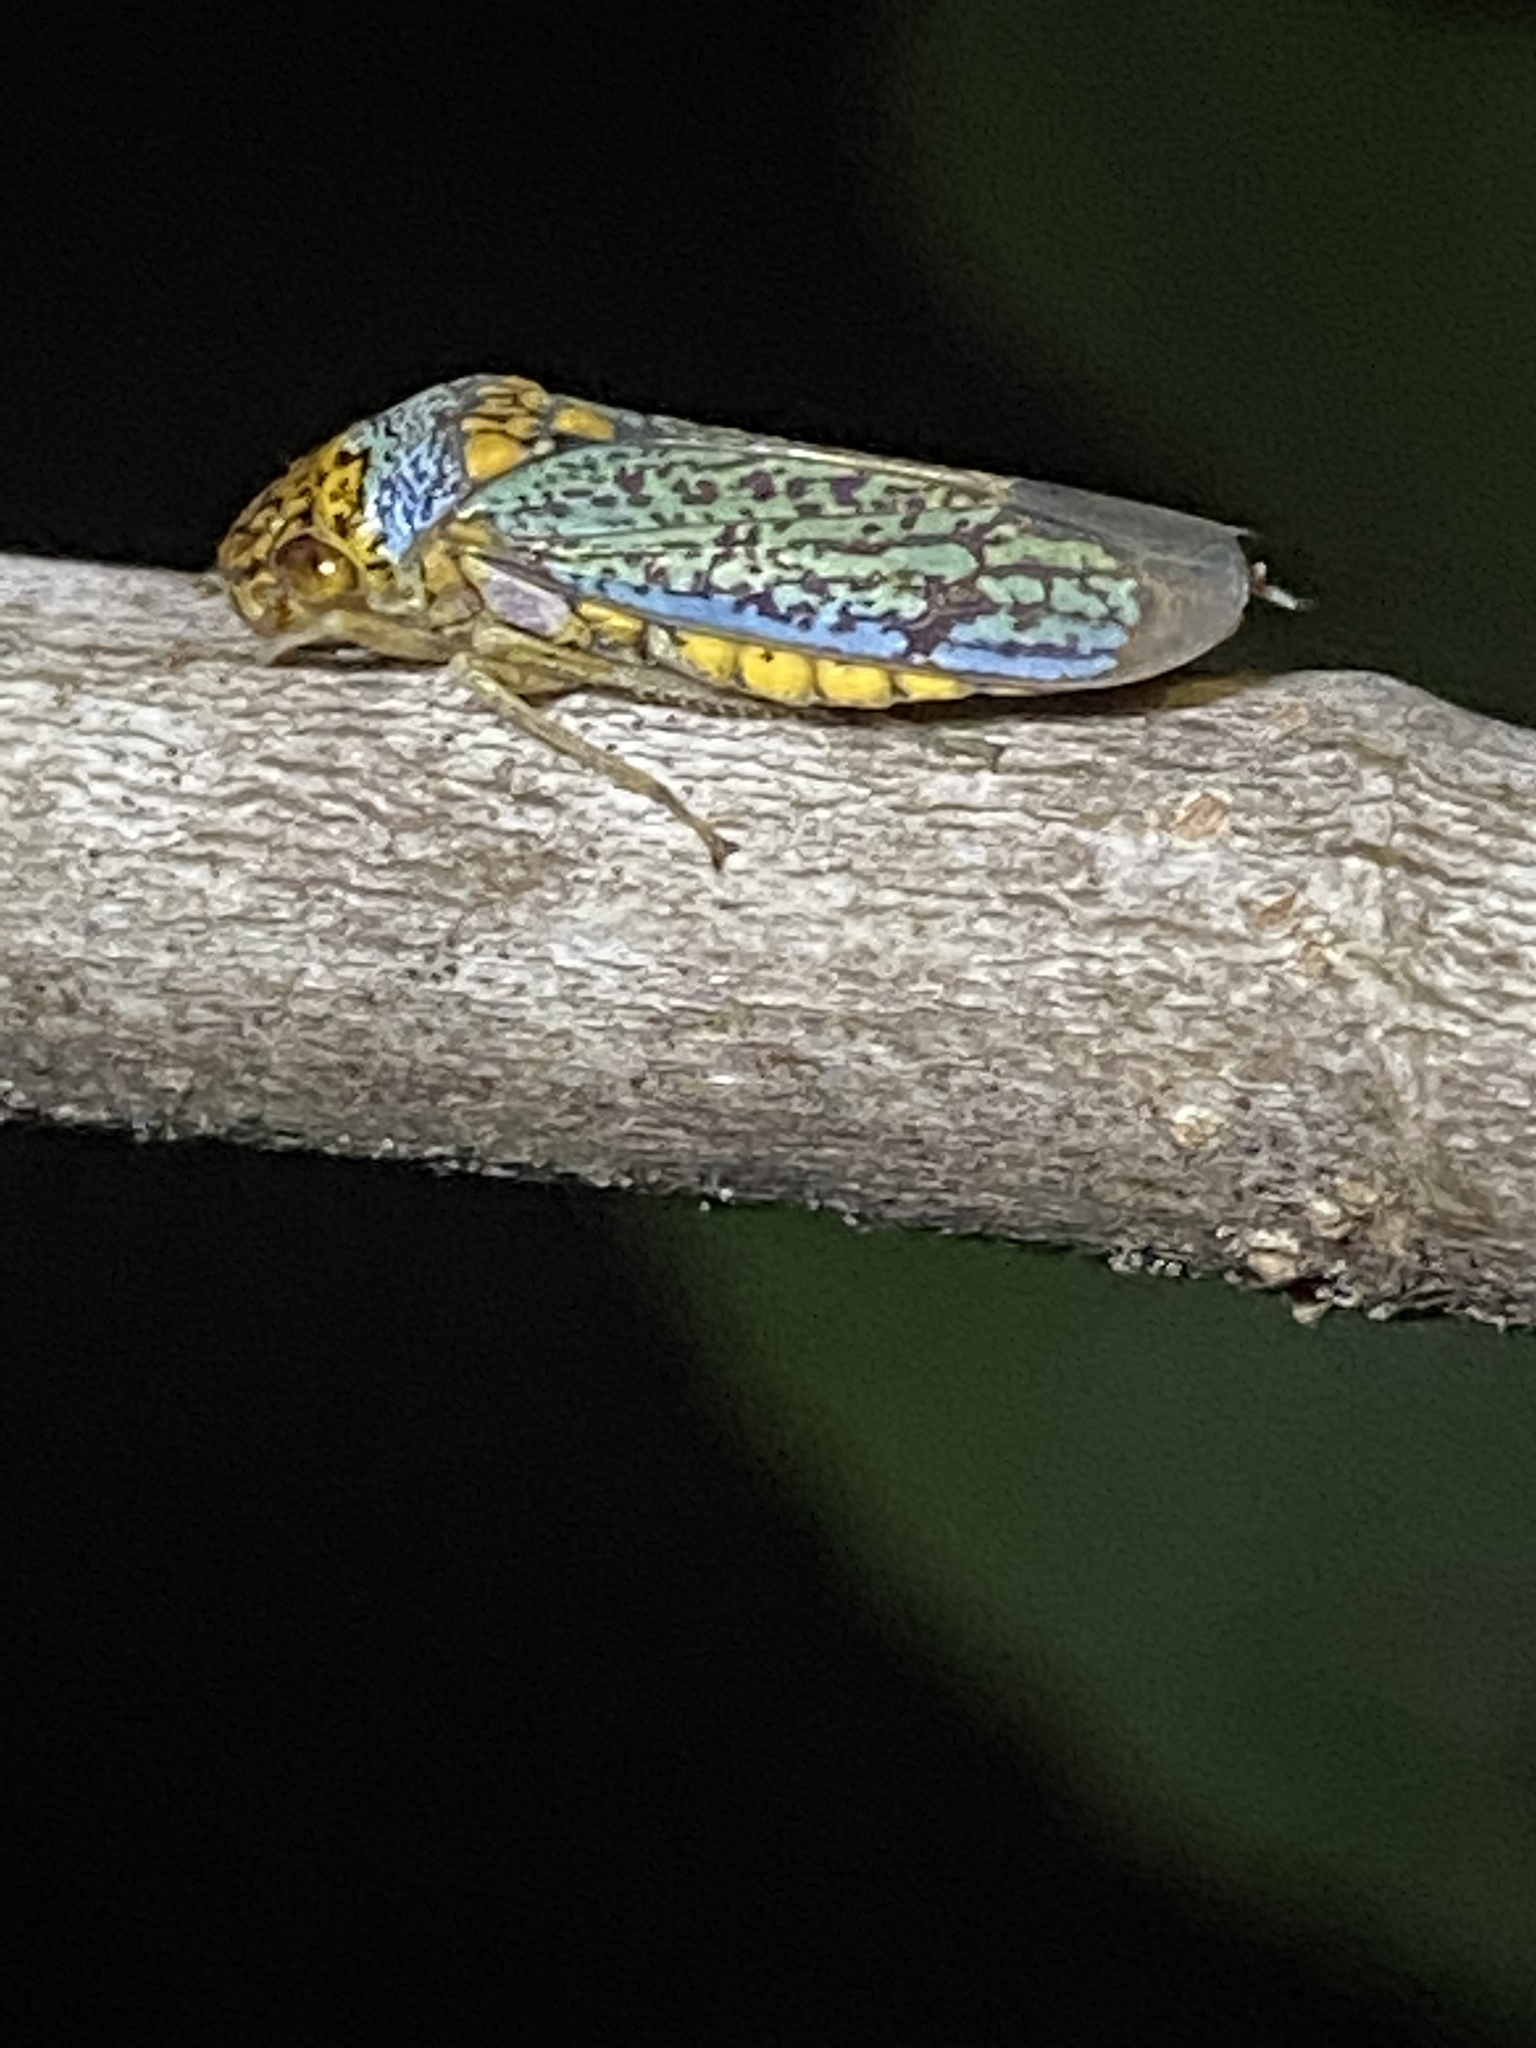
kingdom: Animalia
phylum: Arthropoda
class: Insecta
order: Hemiptera
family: Cicadellidae
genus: Oncometopia
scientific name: Oncometopia orbona
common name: Broad-headed sharpshooter
